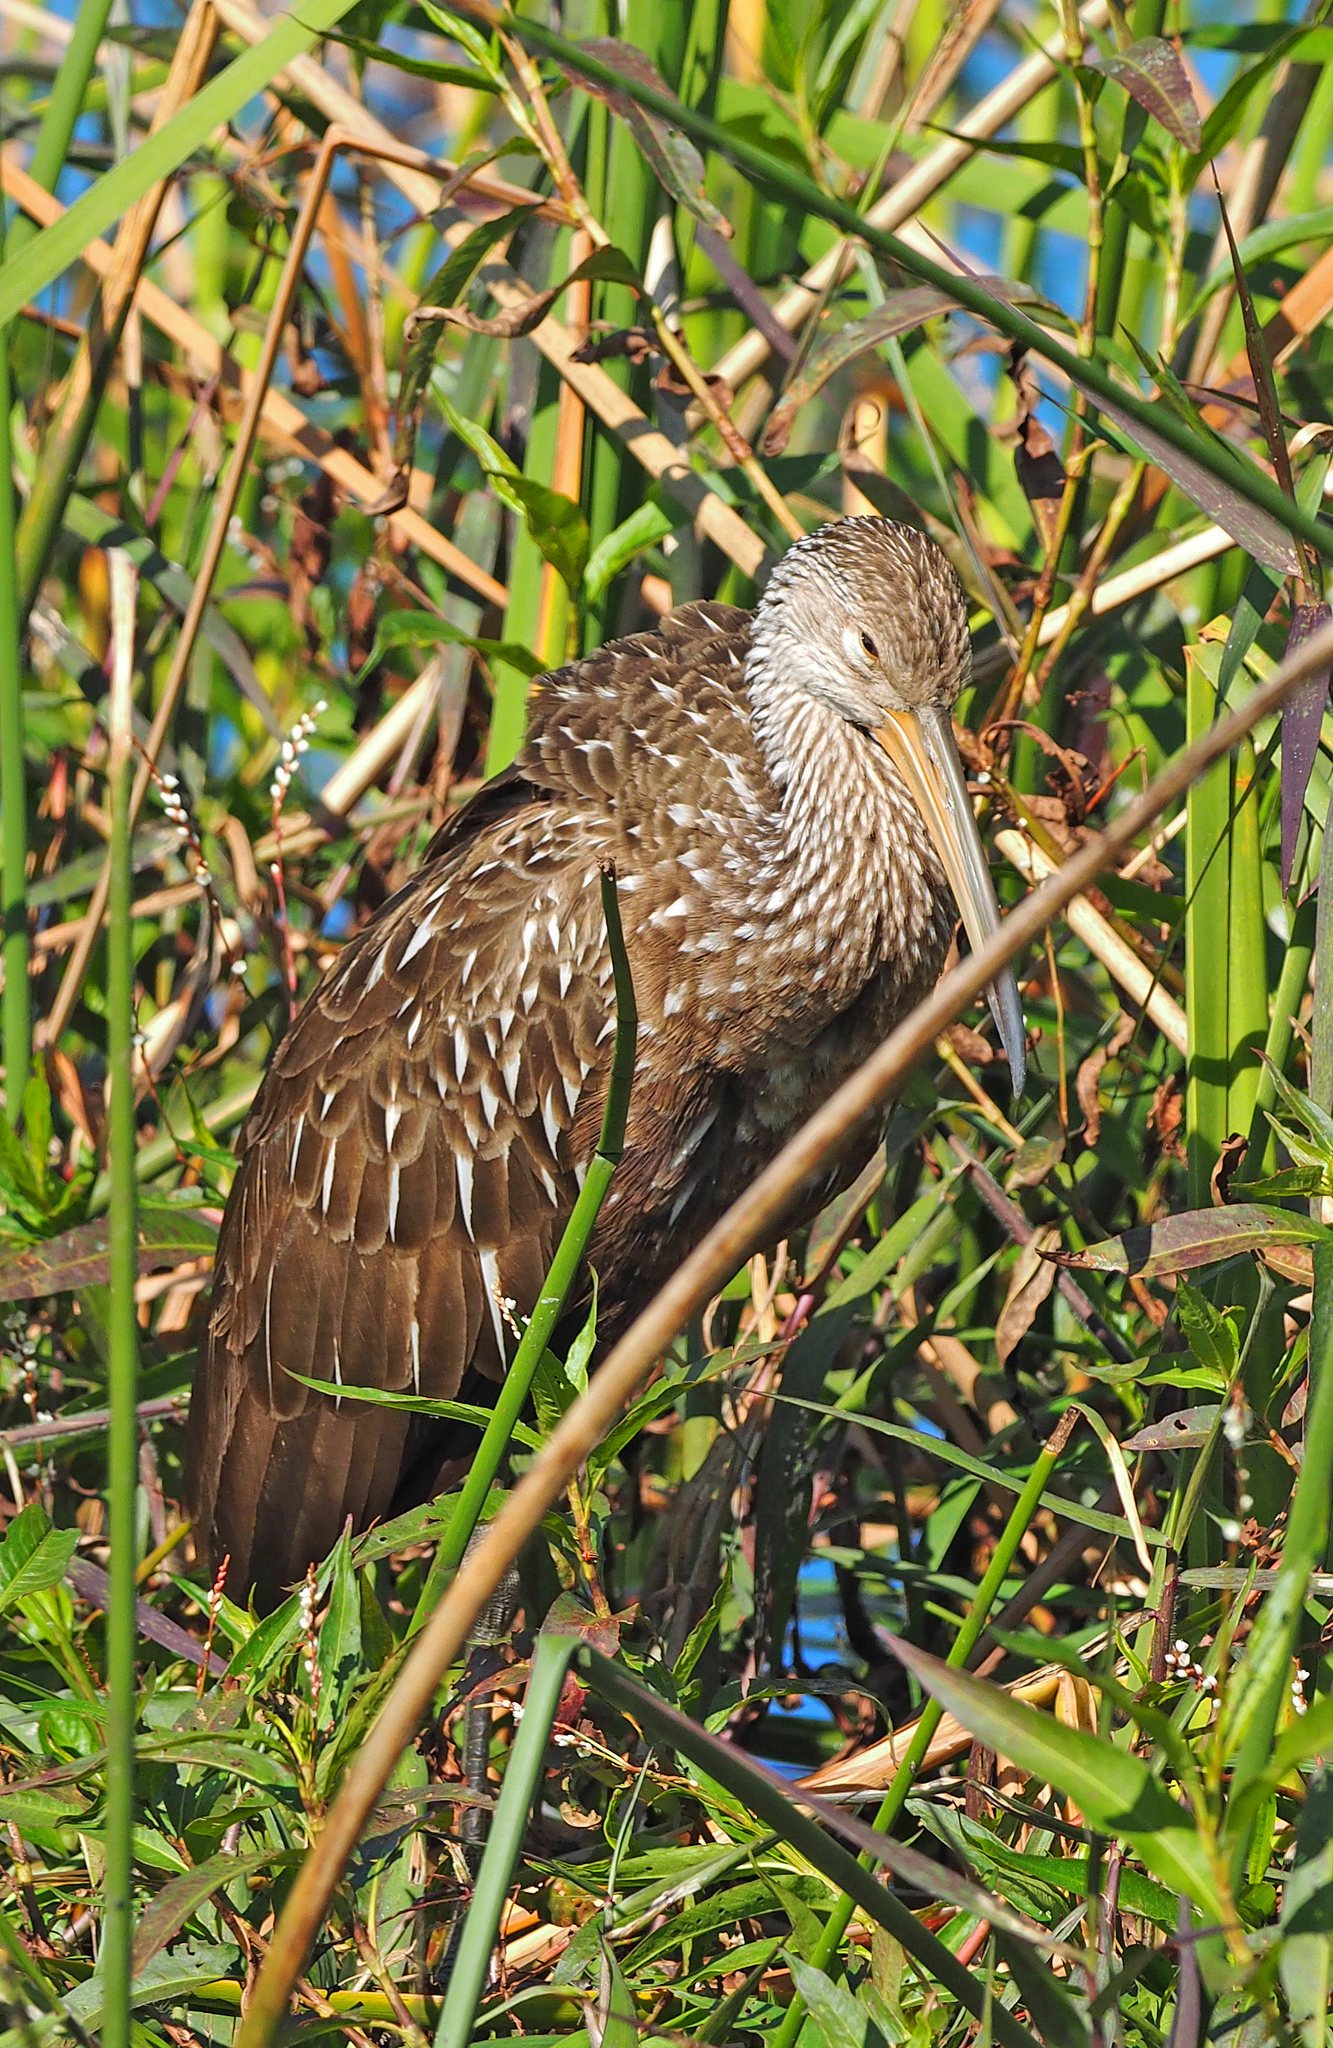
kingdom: Animalia
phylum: Chordata
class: Aves
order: Gruiformes
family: Aramidae
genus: Aramus
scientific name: Aramus guarauna
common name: Limpkin
